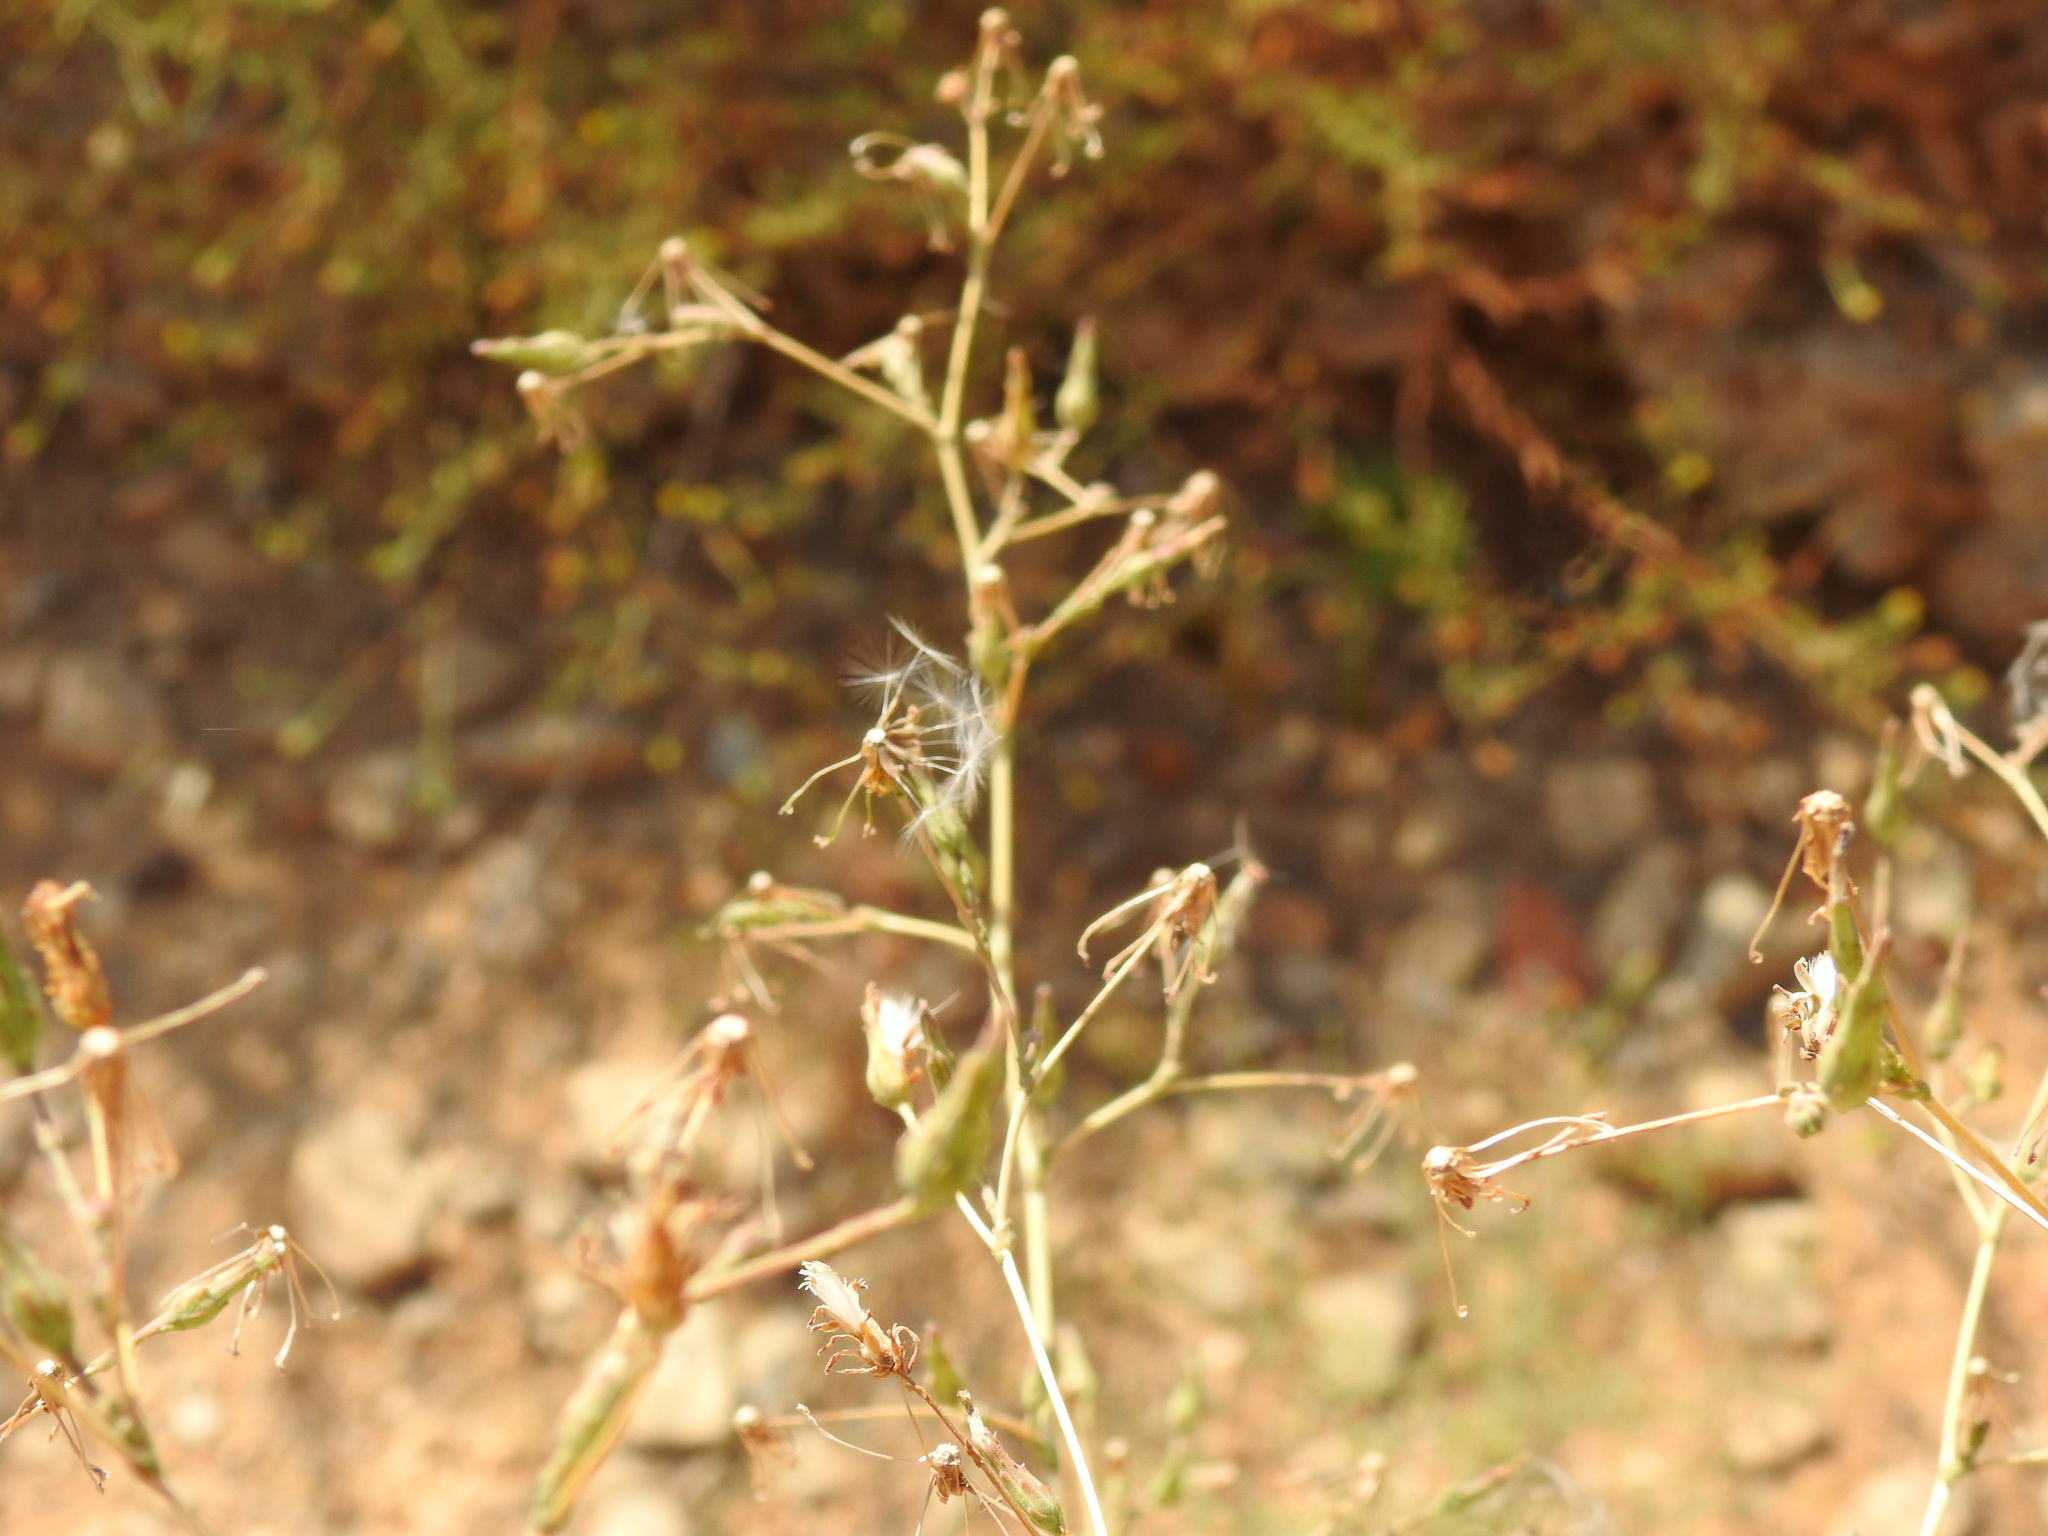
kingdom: Plantae
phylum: Tracheophyta
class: Magnoliopsida
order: Asterales
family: Asteraceae
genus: Lactuca
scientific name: Lactuca serriola
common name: Prickly lettuce
